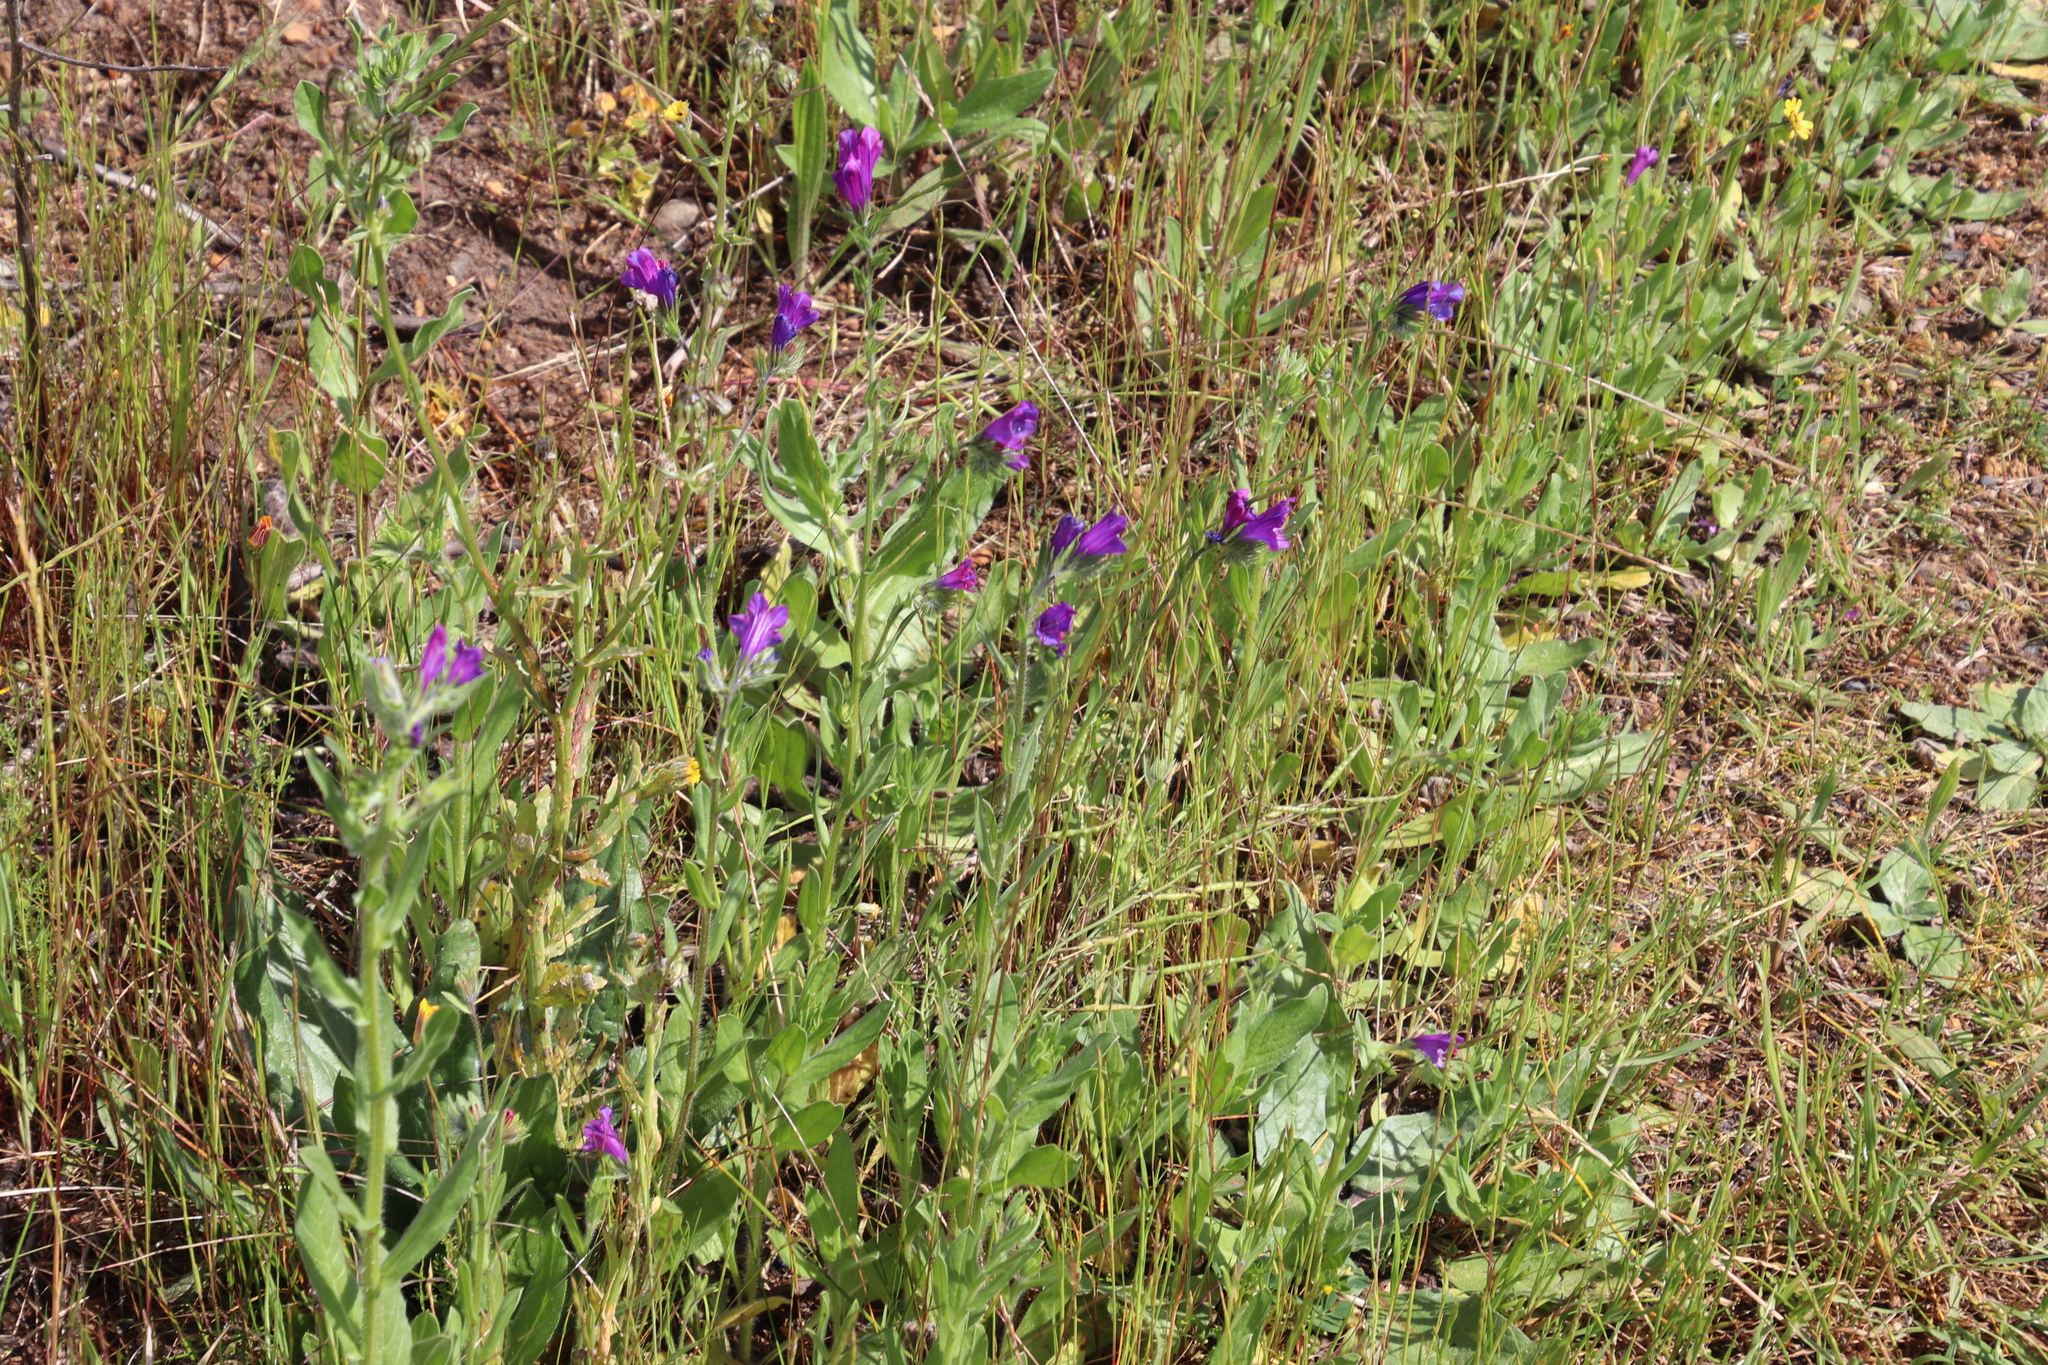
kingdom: Plantae
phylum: Tracheophyta
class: Magnoliopsida
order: Boraginales
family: Boraginaceae
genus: Echium
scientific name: Echium plantagineum
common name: Purple viper's-bugloss
